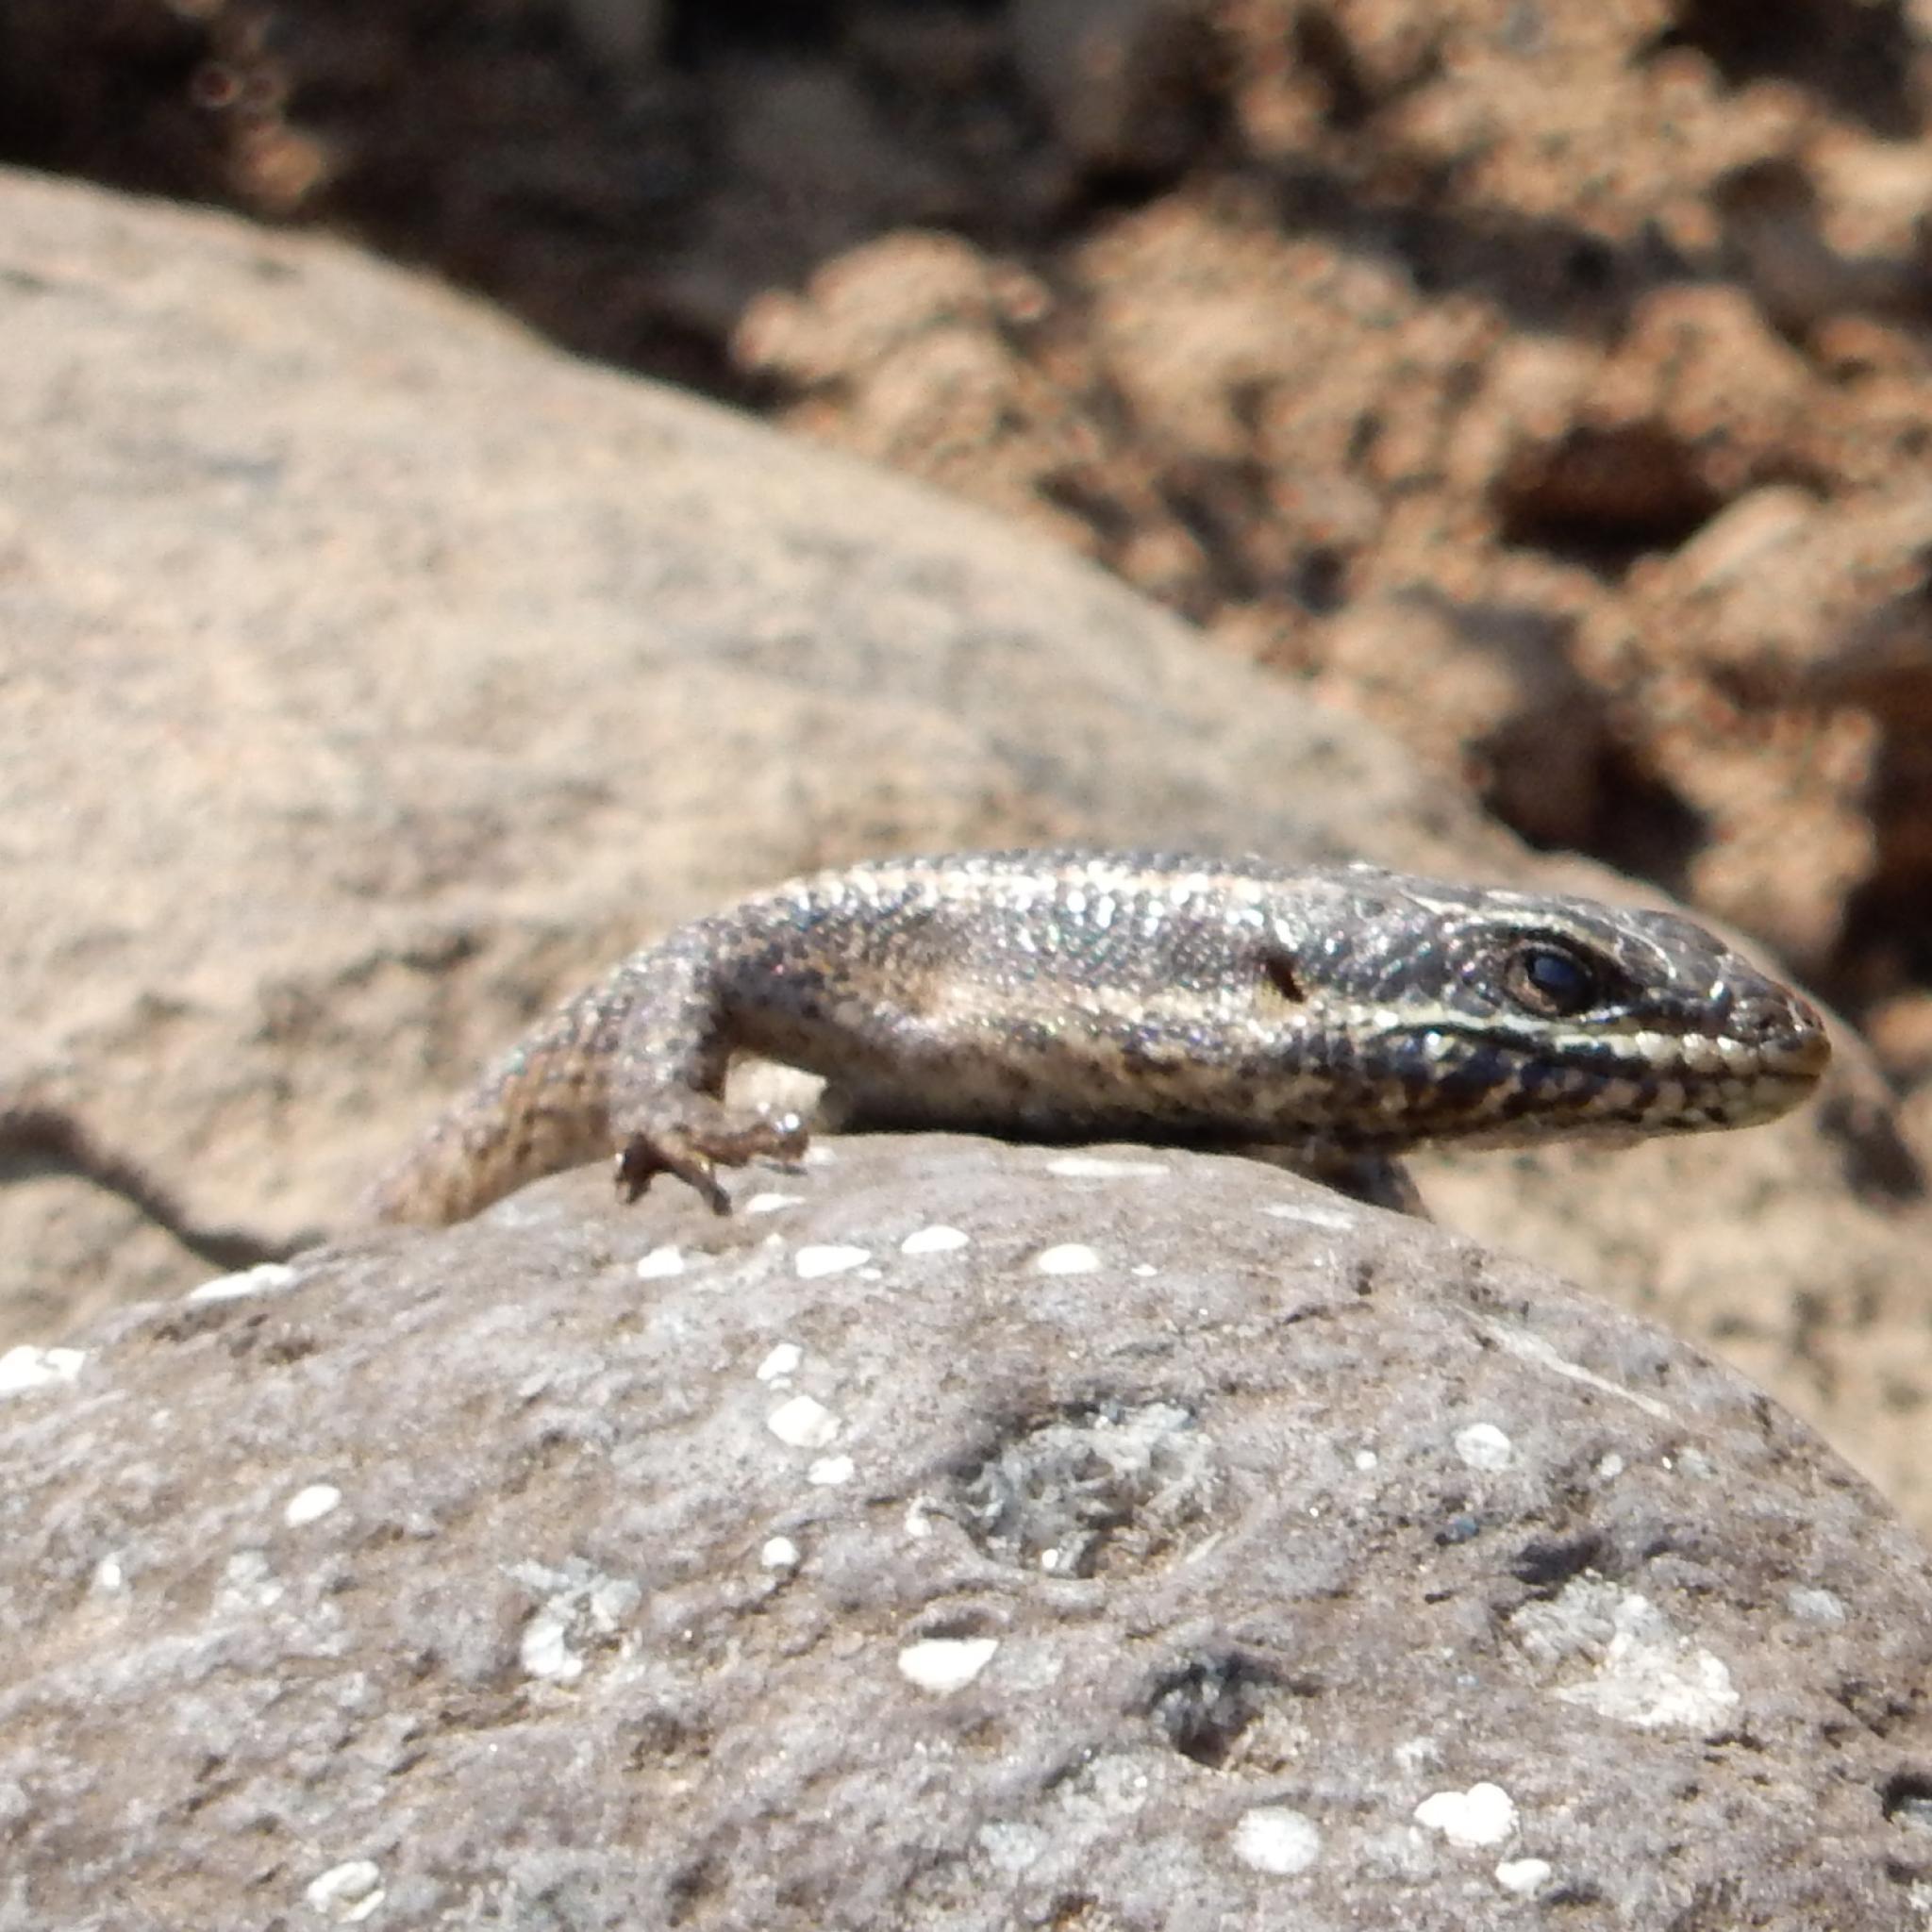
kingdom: Animalia
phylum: Chordata
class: Squamata
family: Scincidae
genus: Trachylepis
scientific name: Trachylepis punctatissima
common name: Montane speckled skink
